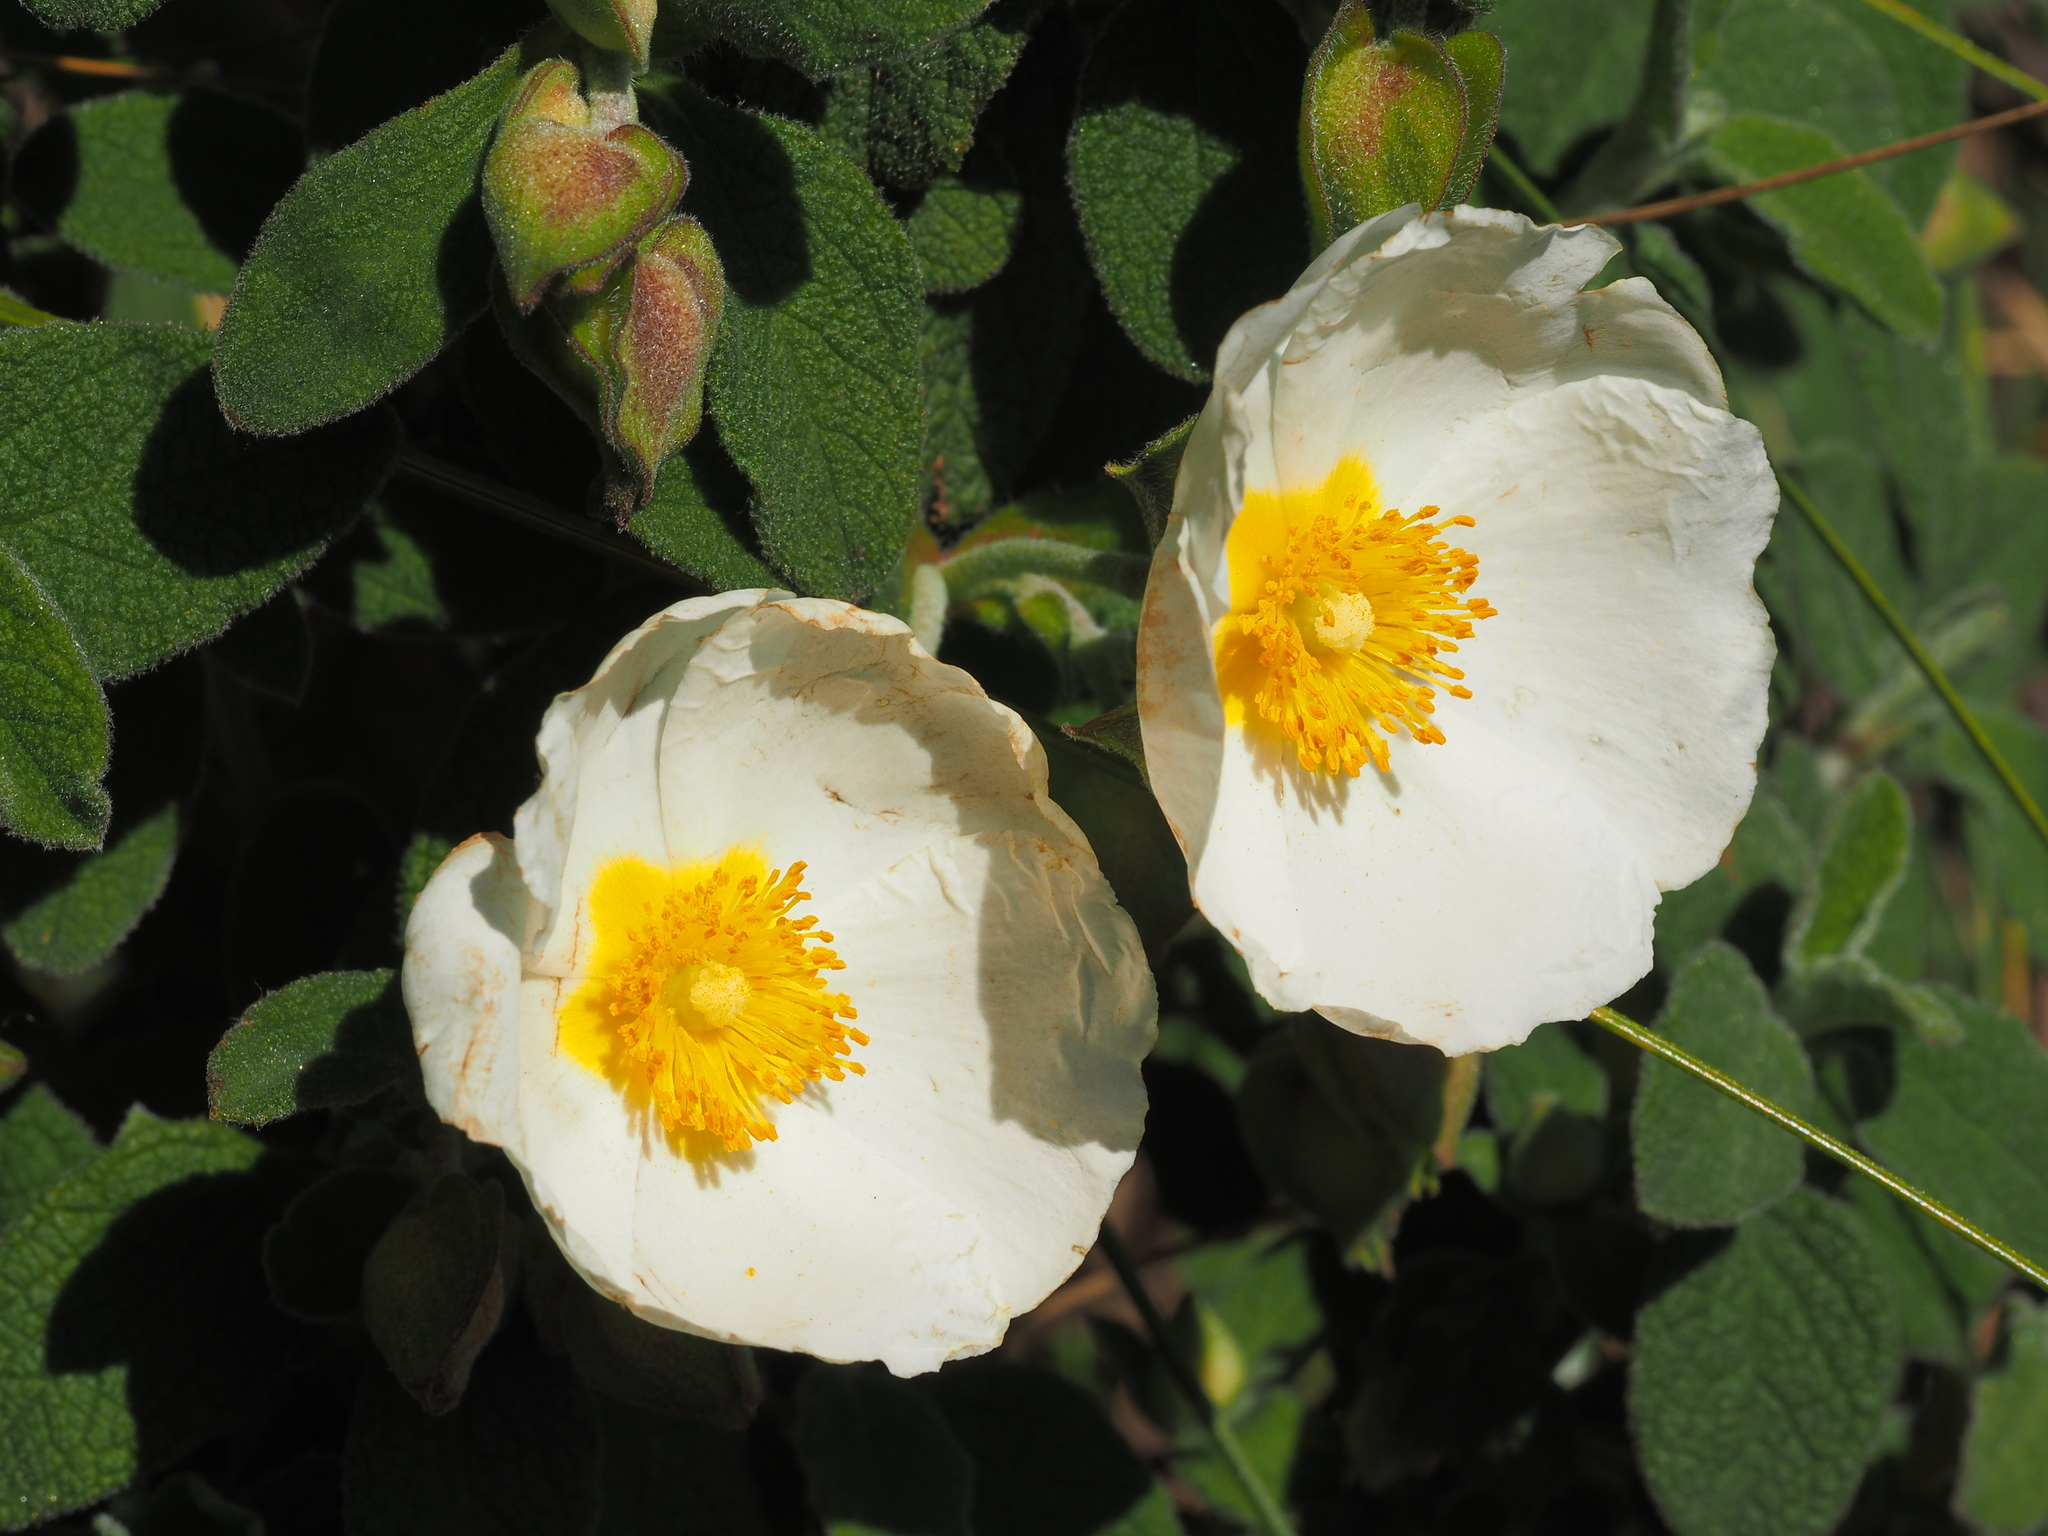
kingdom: Plantae
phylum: Tracheophyta
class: Magnoliopsida
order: Malvales
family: Cistaceae
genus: Cistus
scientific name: Cistus salviifolius
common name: Salvia cistus
